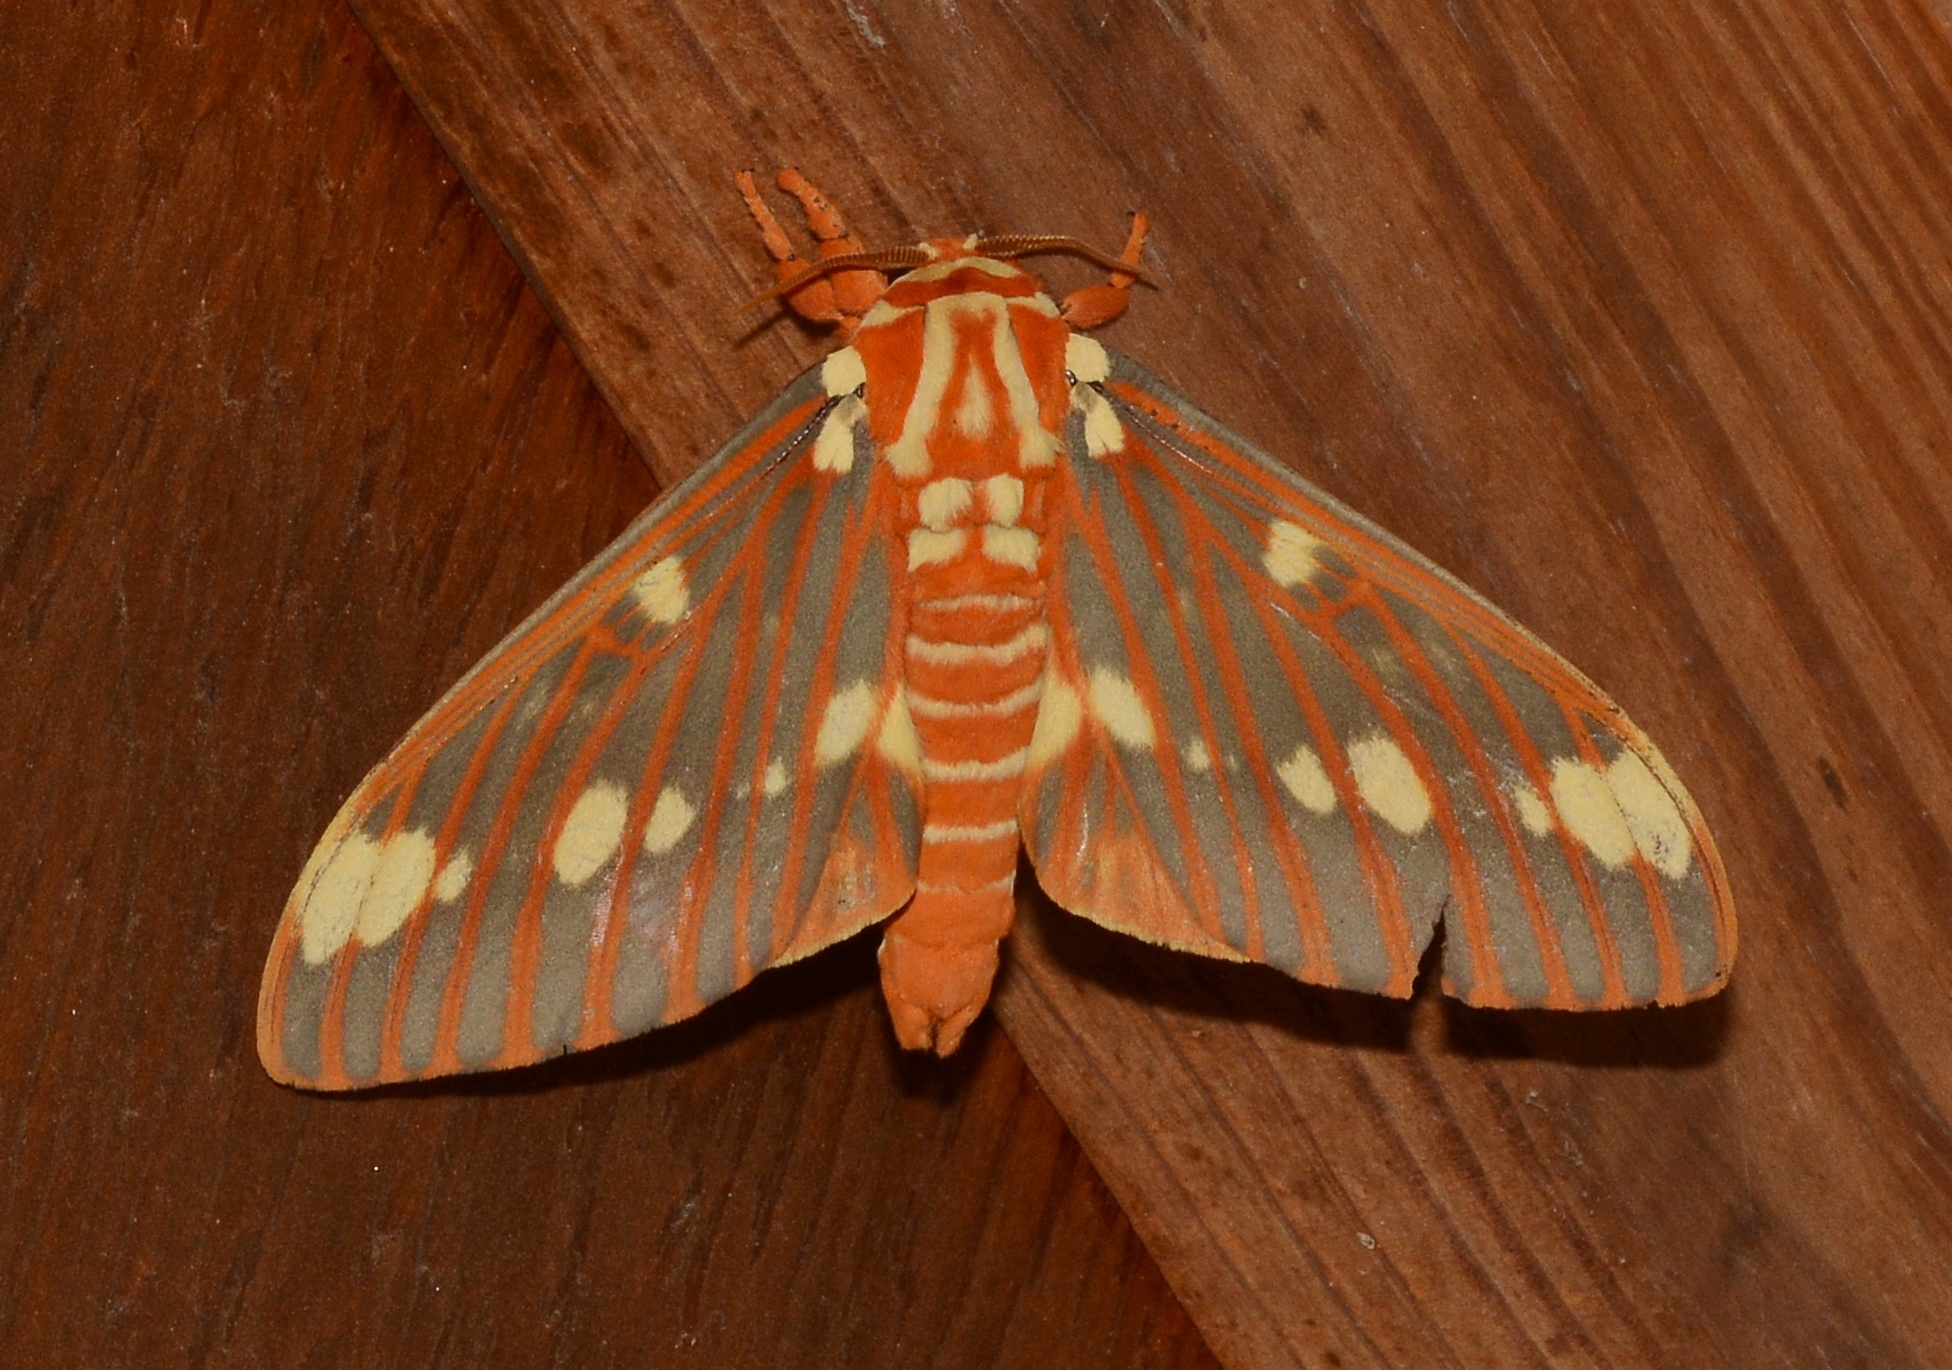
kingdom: Animalia
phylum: Arthropoda
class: Insecta
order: Lepidoptera
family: Saturniidae
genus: Citheronia
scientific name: Citheronia regalis
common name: Hickory horned devil
